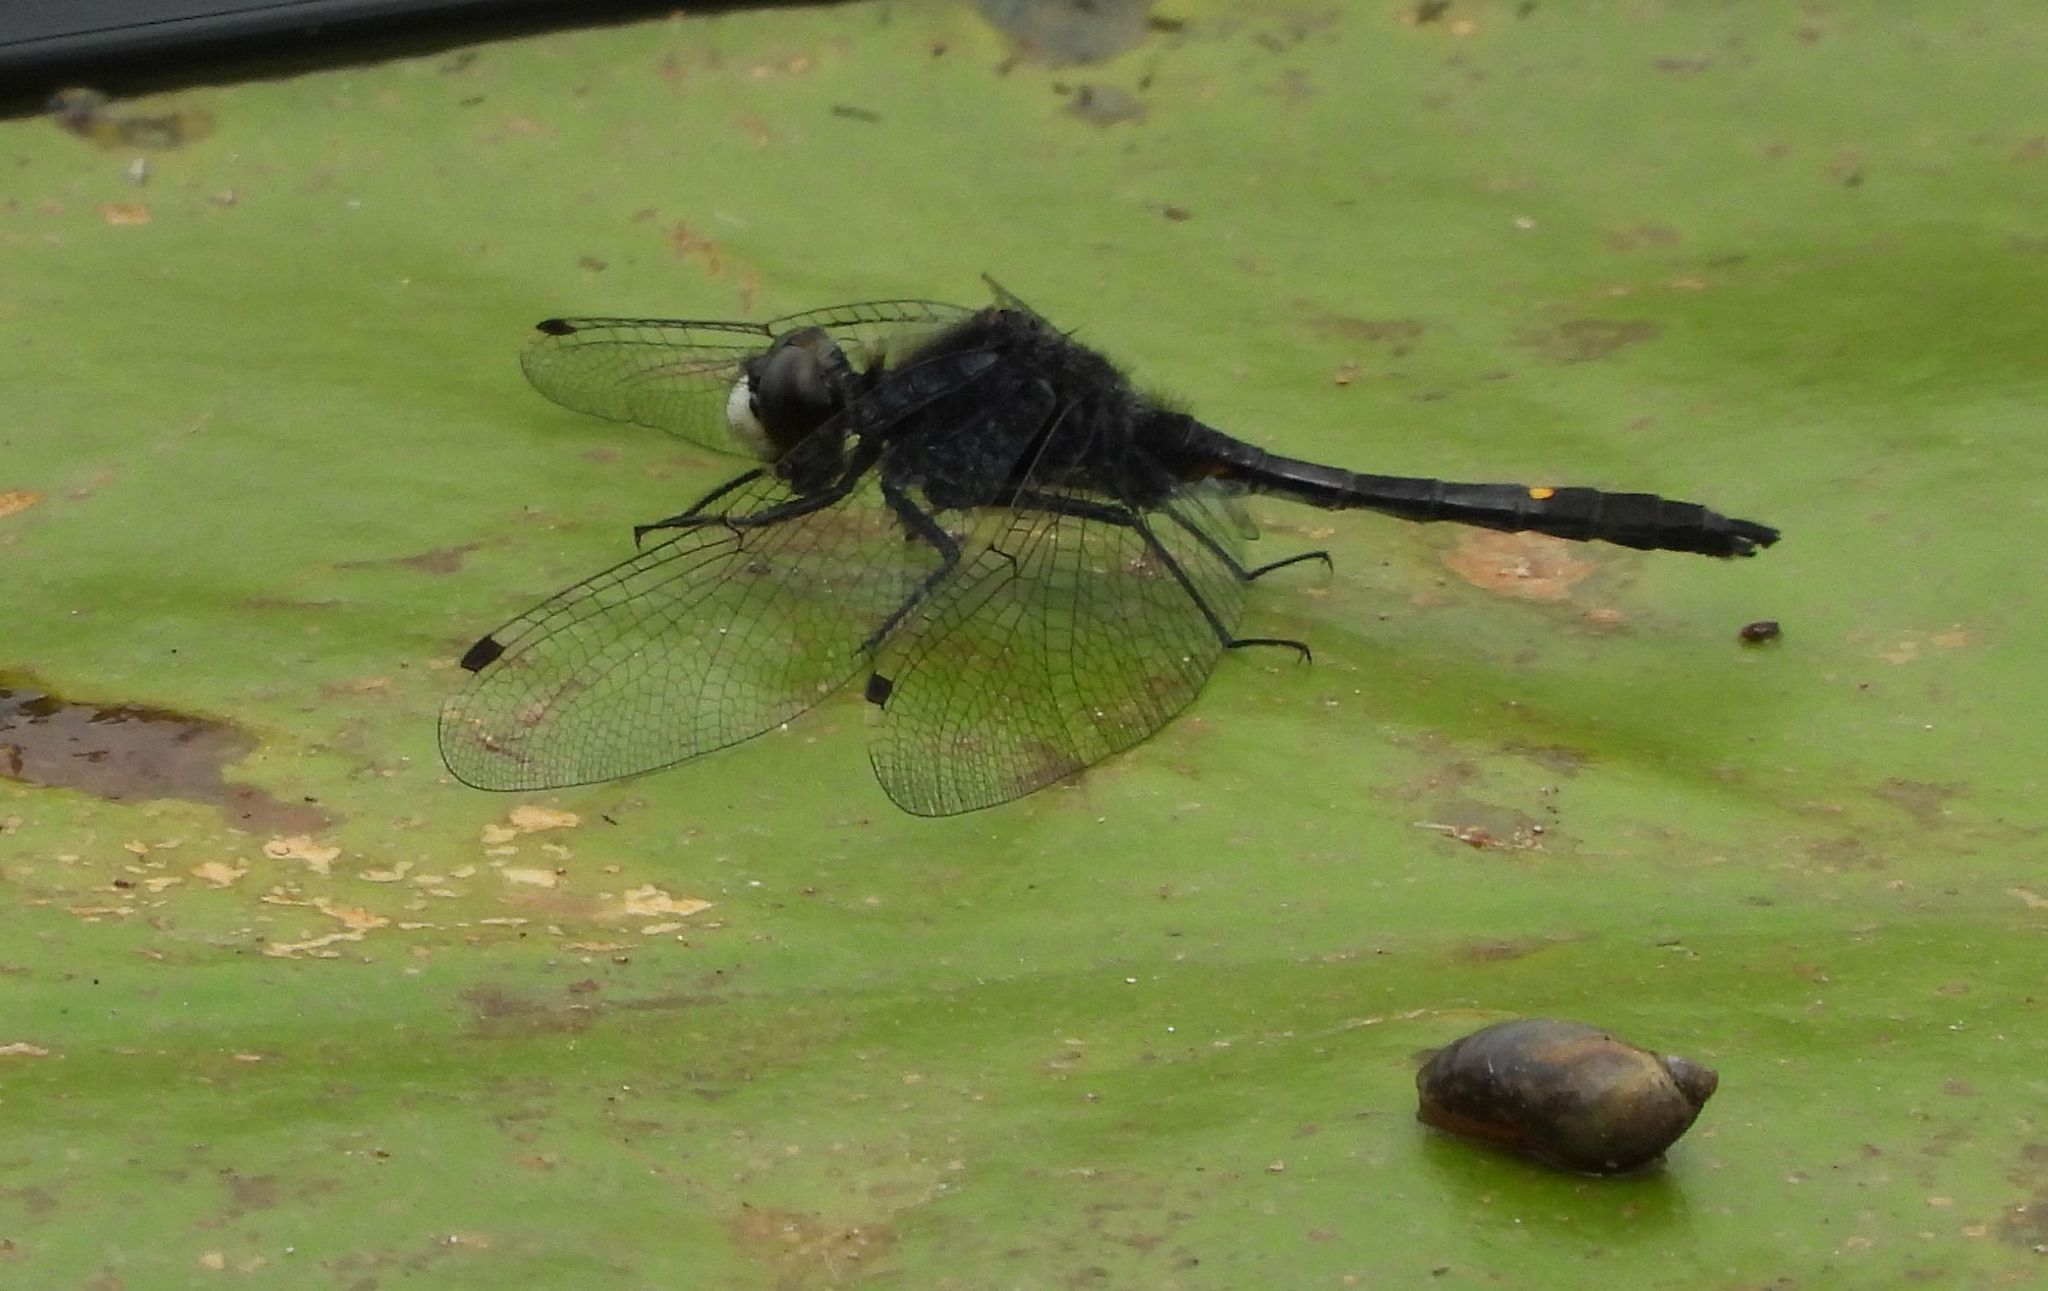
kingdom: Animalia
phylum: Arthropoda
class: Insecta
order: Odonata
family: Libellulidae
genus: Leucorrhinia
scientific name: Leucorrhinia intacta
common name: Dot-tailed whiteface
